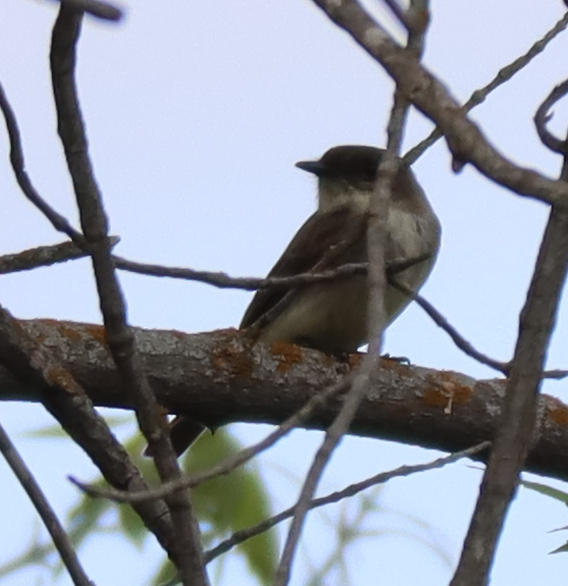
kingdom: Animalia
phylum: Chordata
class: Aves
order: Passeriformes
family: Tyrannidae
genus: Sayornis
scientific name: Sayornis phoebe
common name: Eastern phoebe
